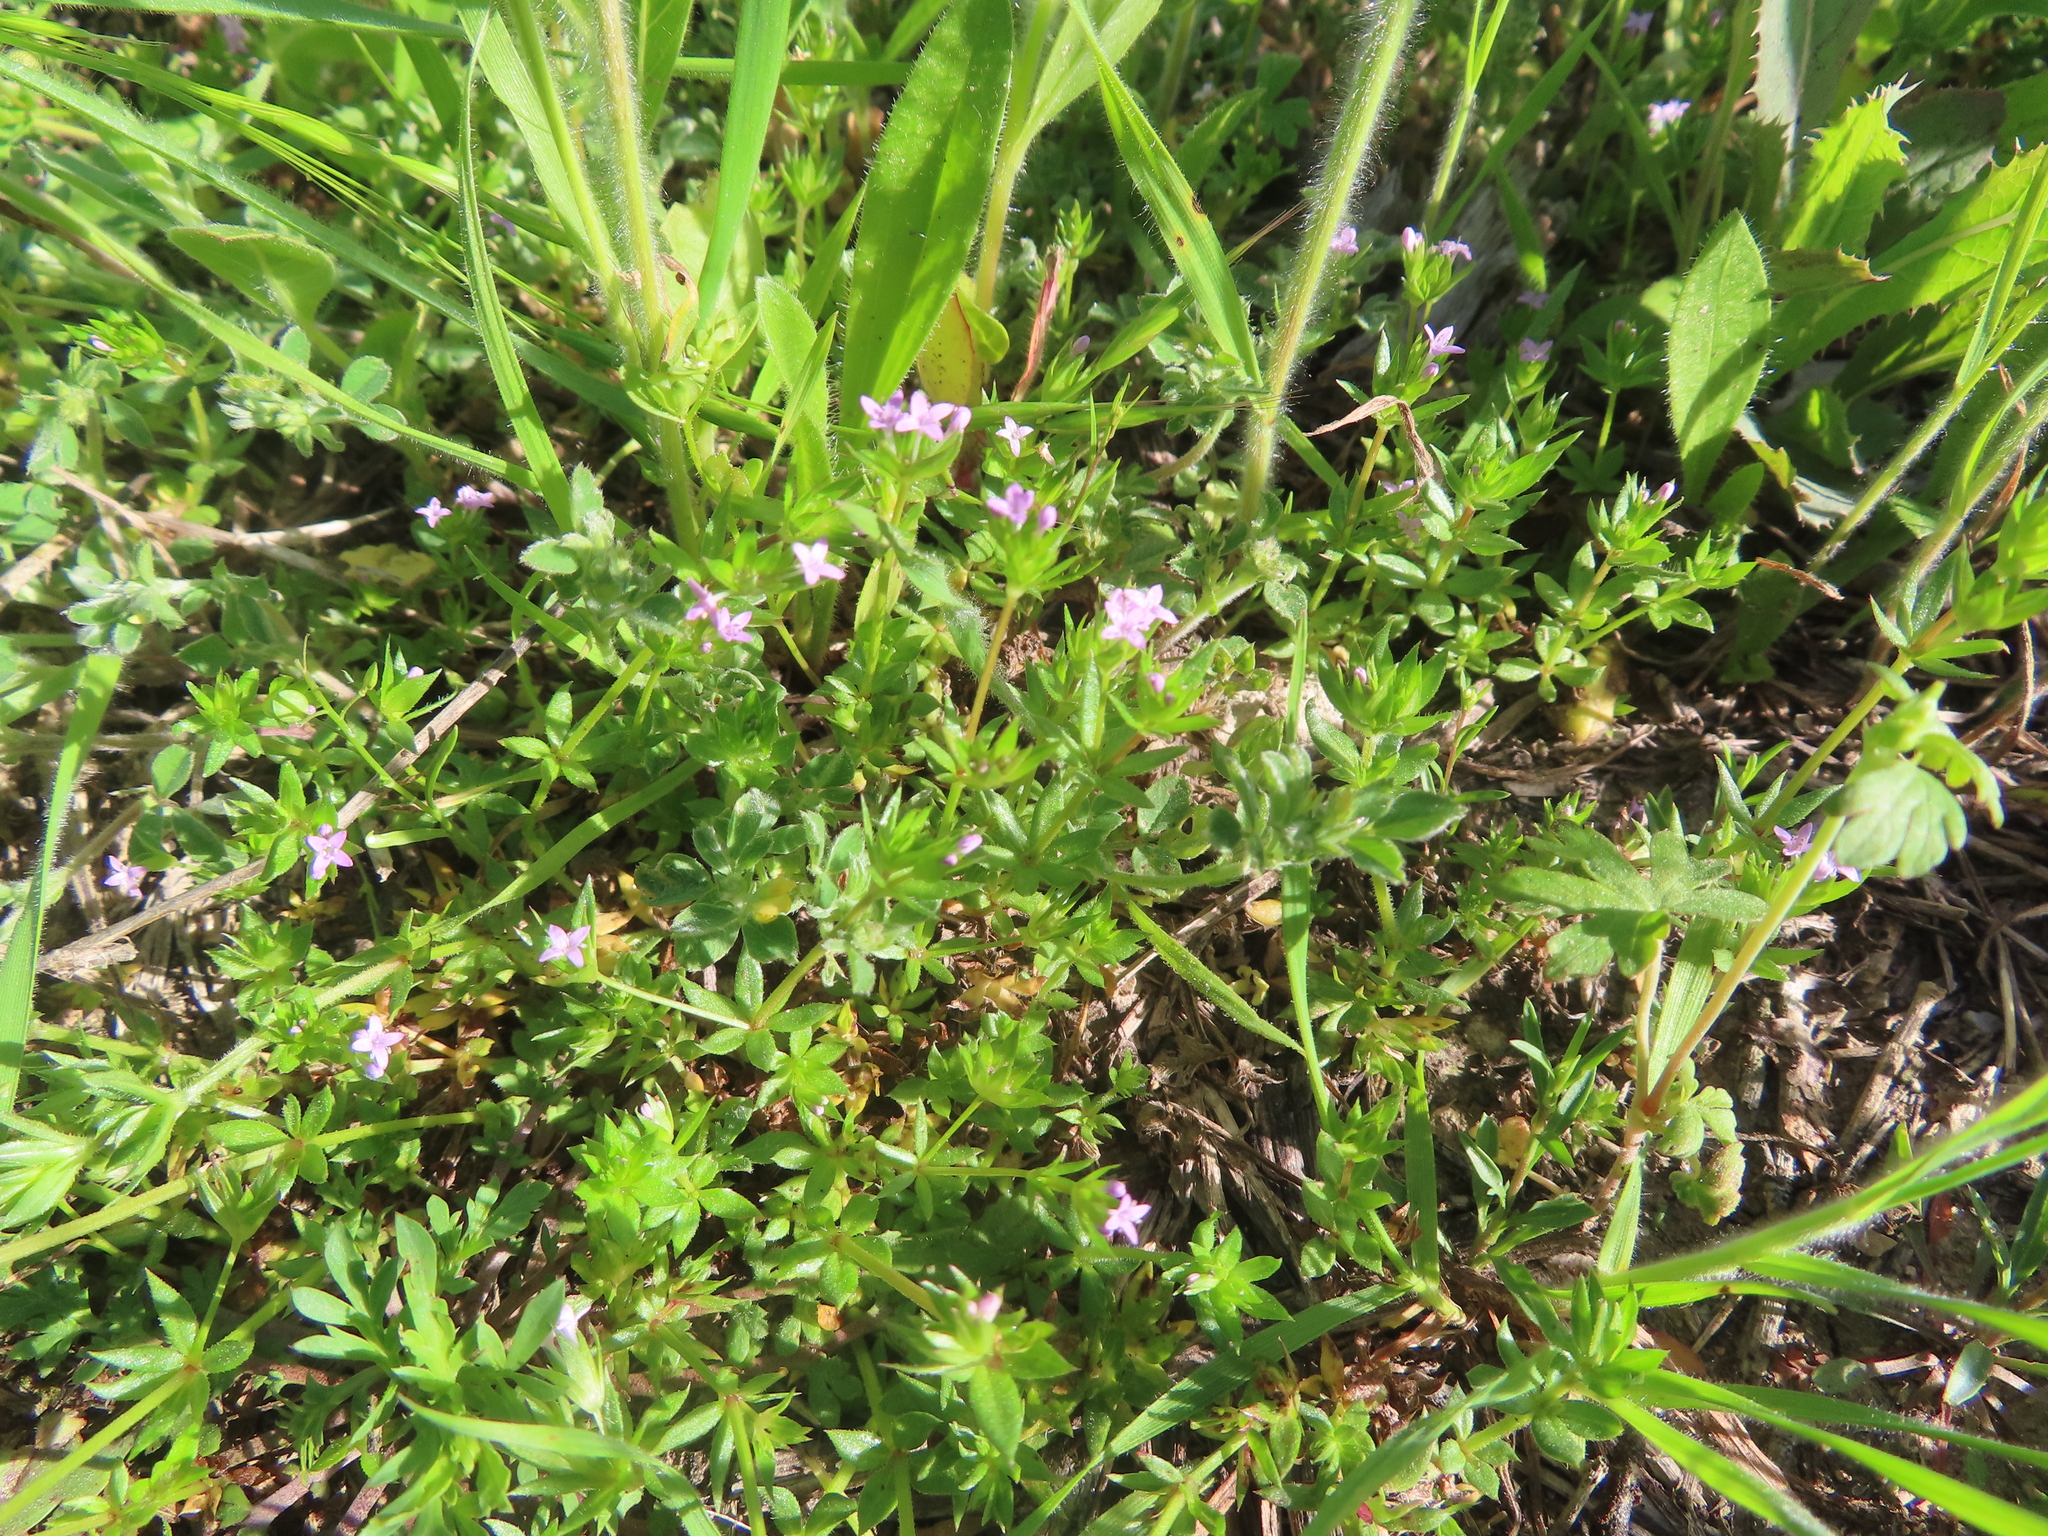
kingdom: Plantae
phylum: Tracheophyta
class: Magnoliopsida
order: Gentianales
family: Rubiaceae
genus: Sherardia
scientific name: Sherardia arvensis
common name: Field madder
